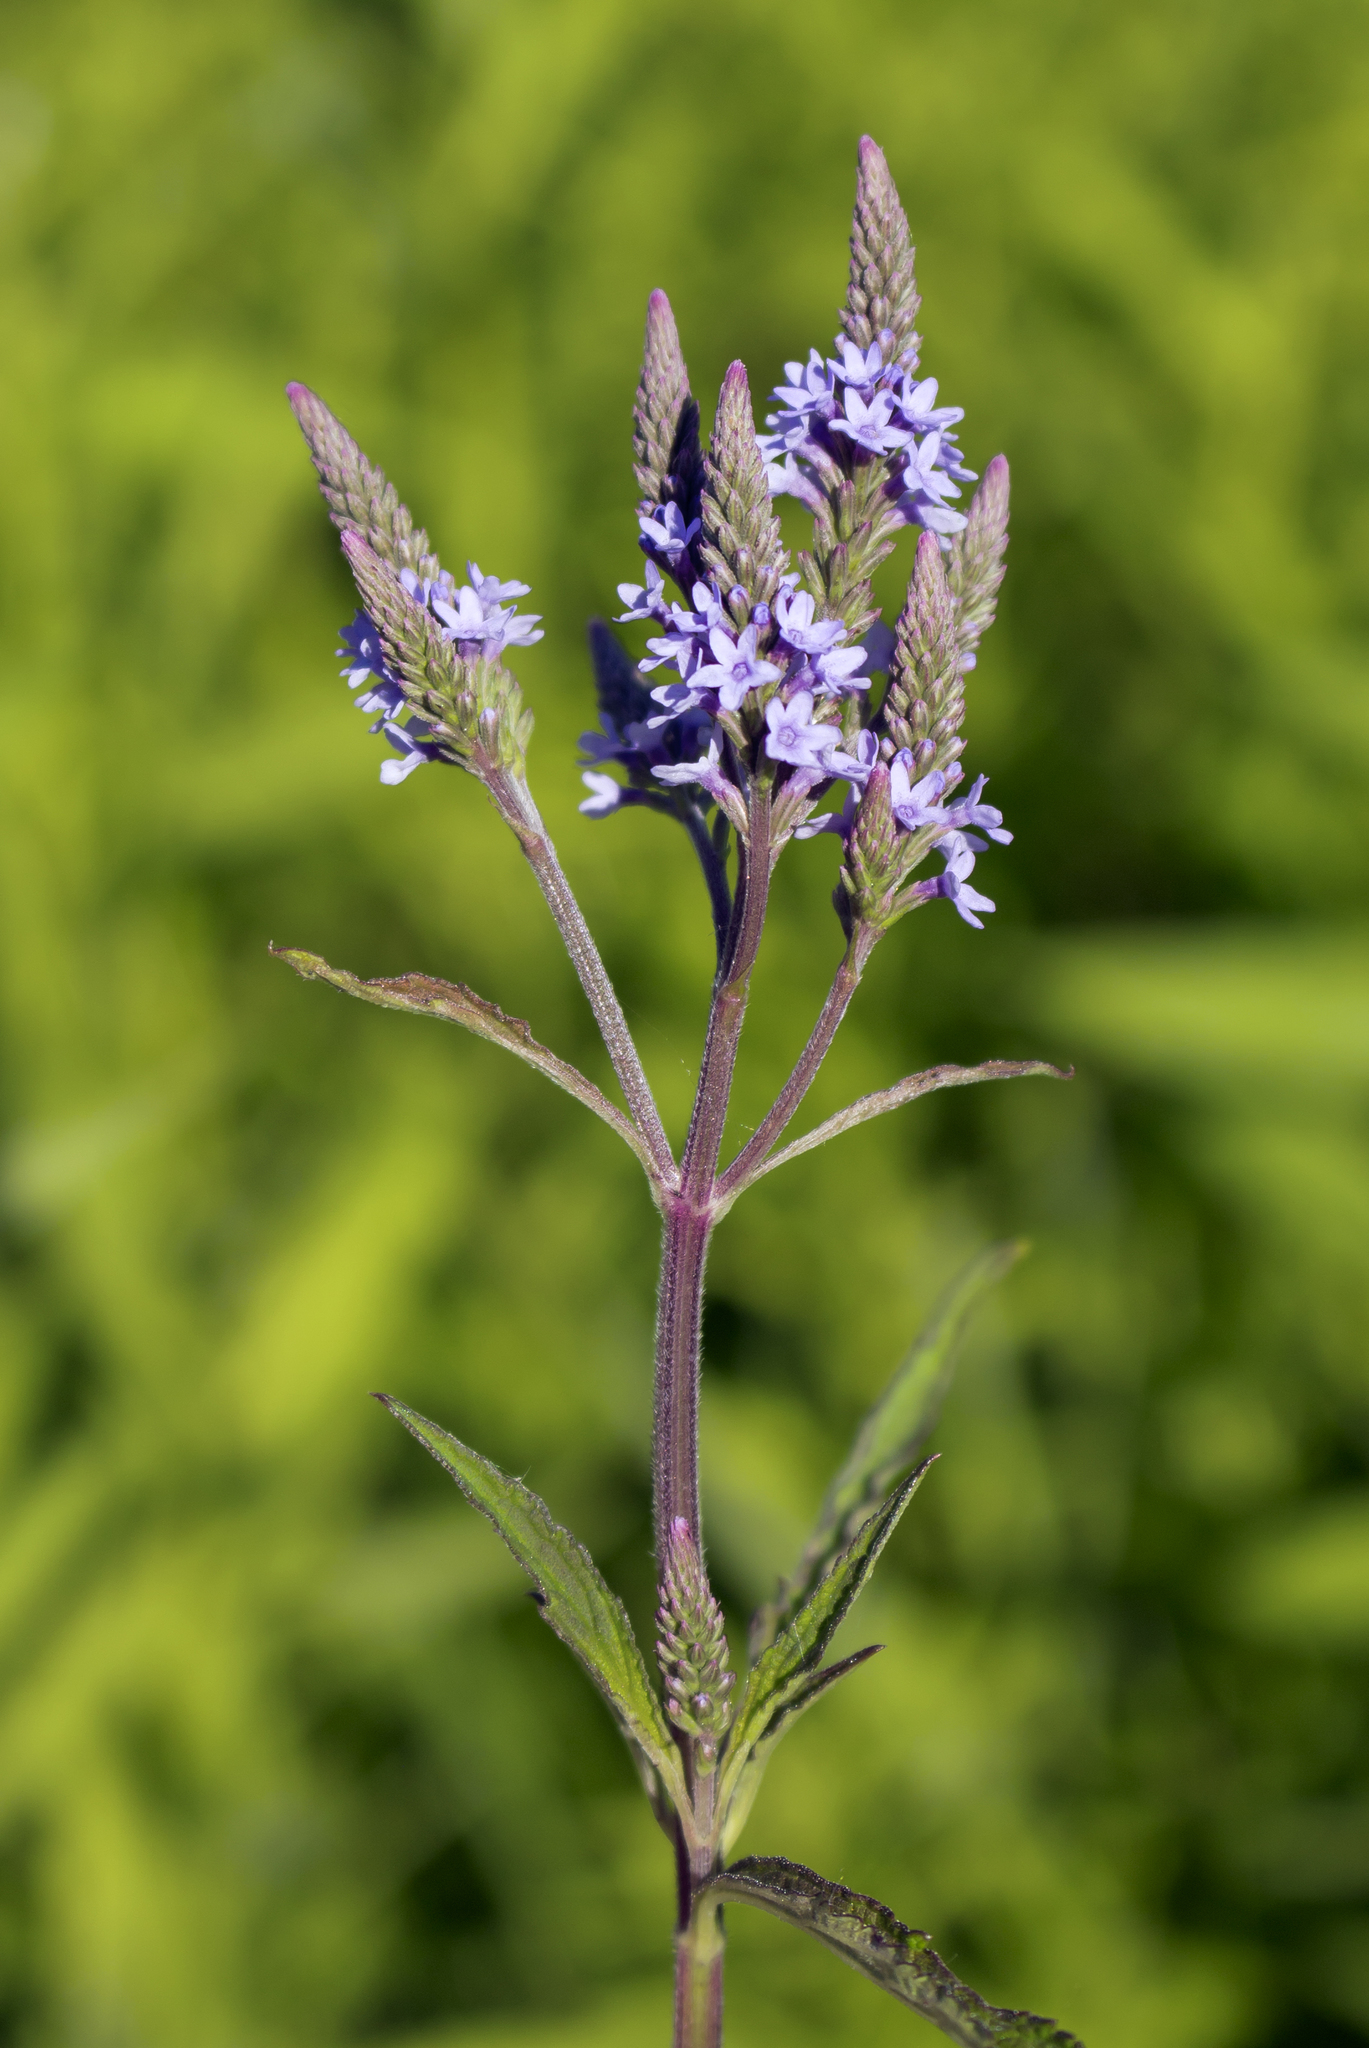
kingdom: Plantae
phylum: Tracheophyta
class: Magnoliopsida
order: Lamiales
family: Verbenaceae
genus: Verbena
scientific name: Verbena hastata
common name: American blue vervain
